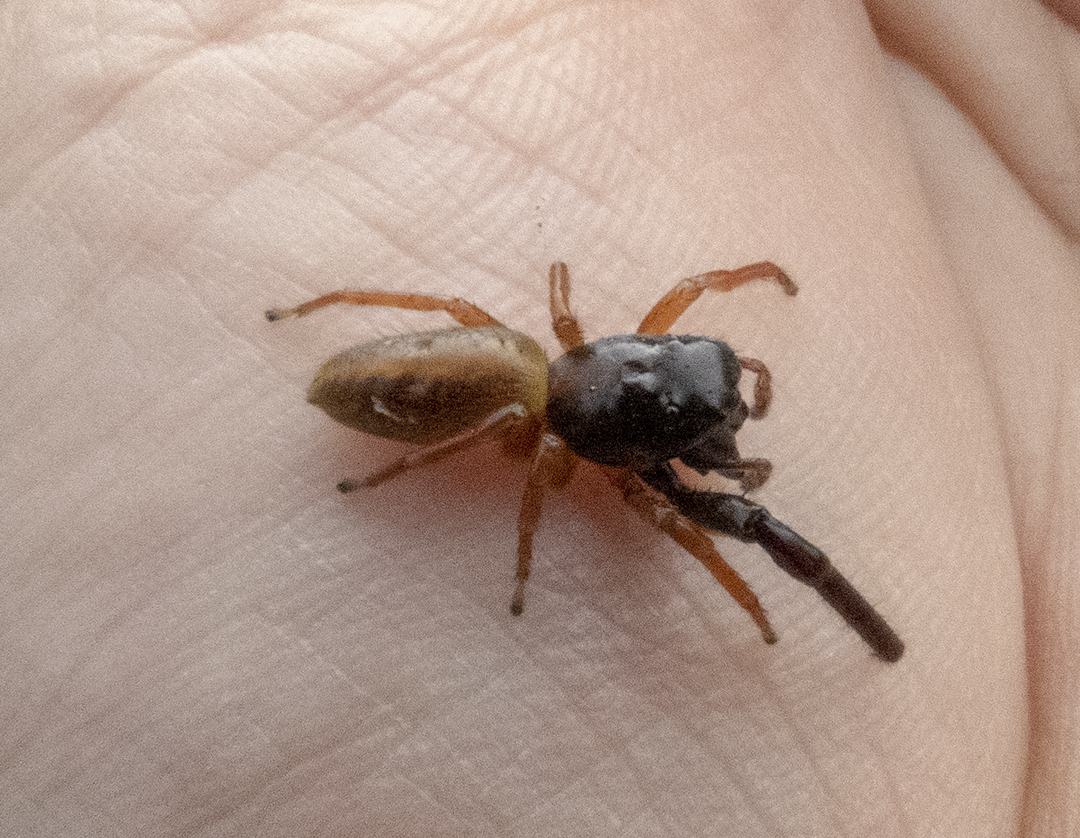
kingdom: Animalia
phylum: Arthropoda
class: Arachnida
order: Araneae
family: Salticidae
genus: Trite
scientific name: Trite planiceps
